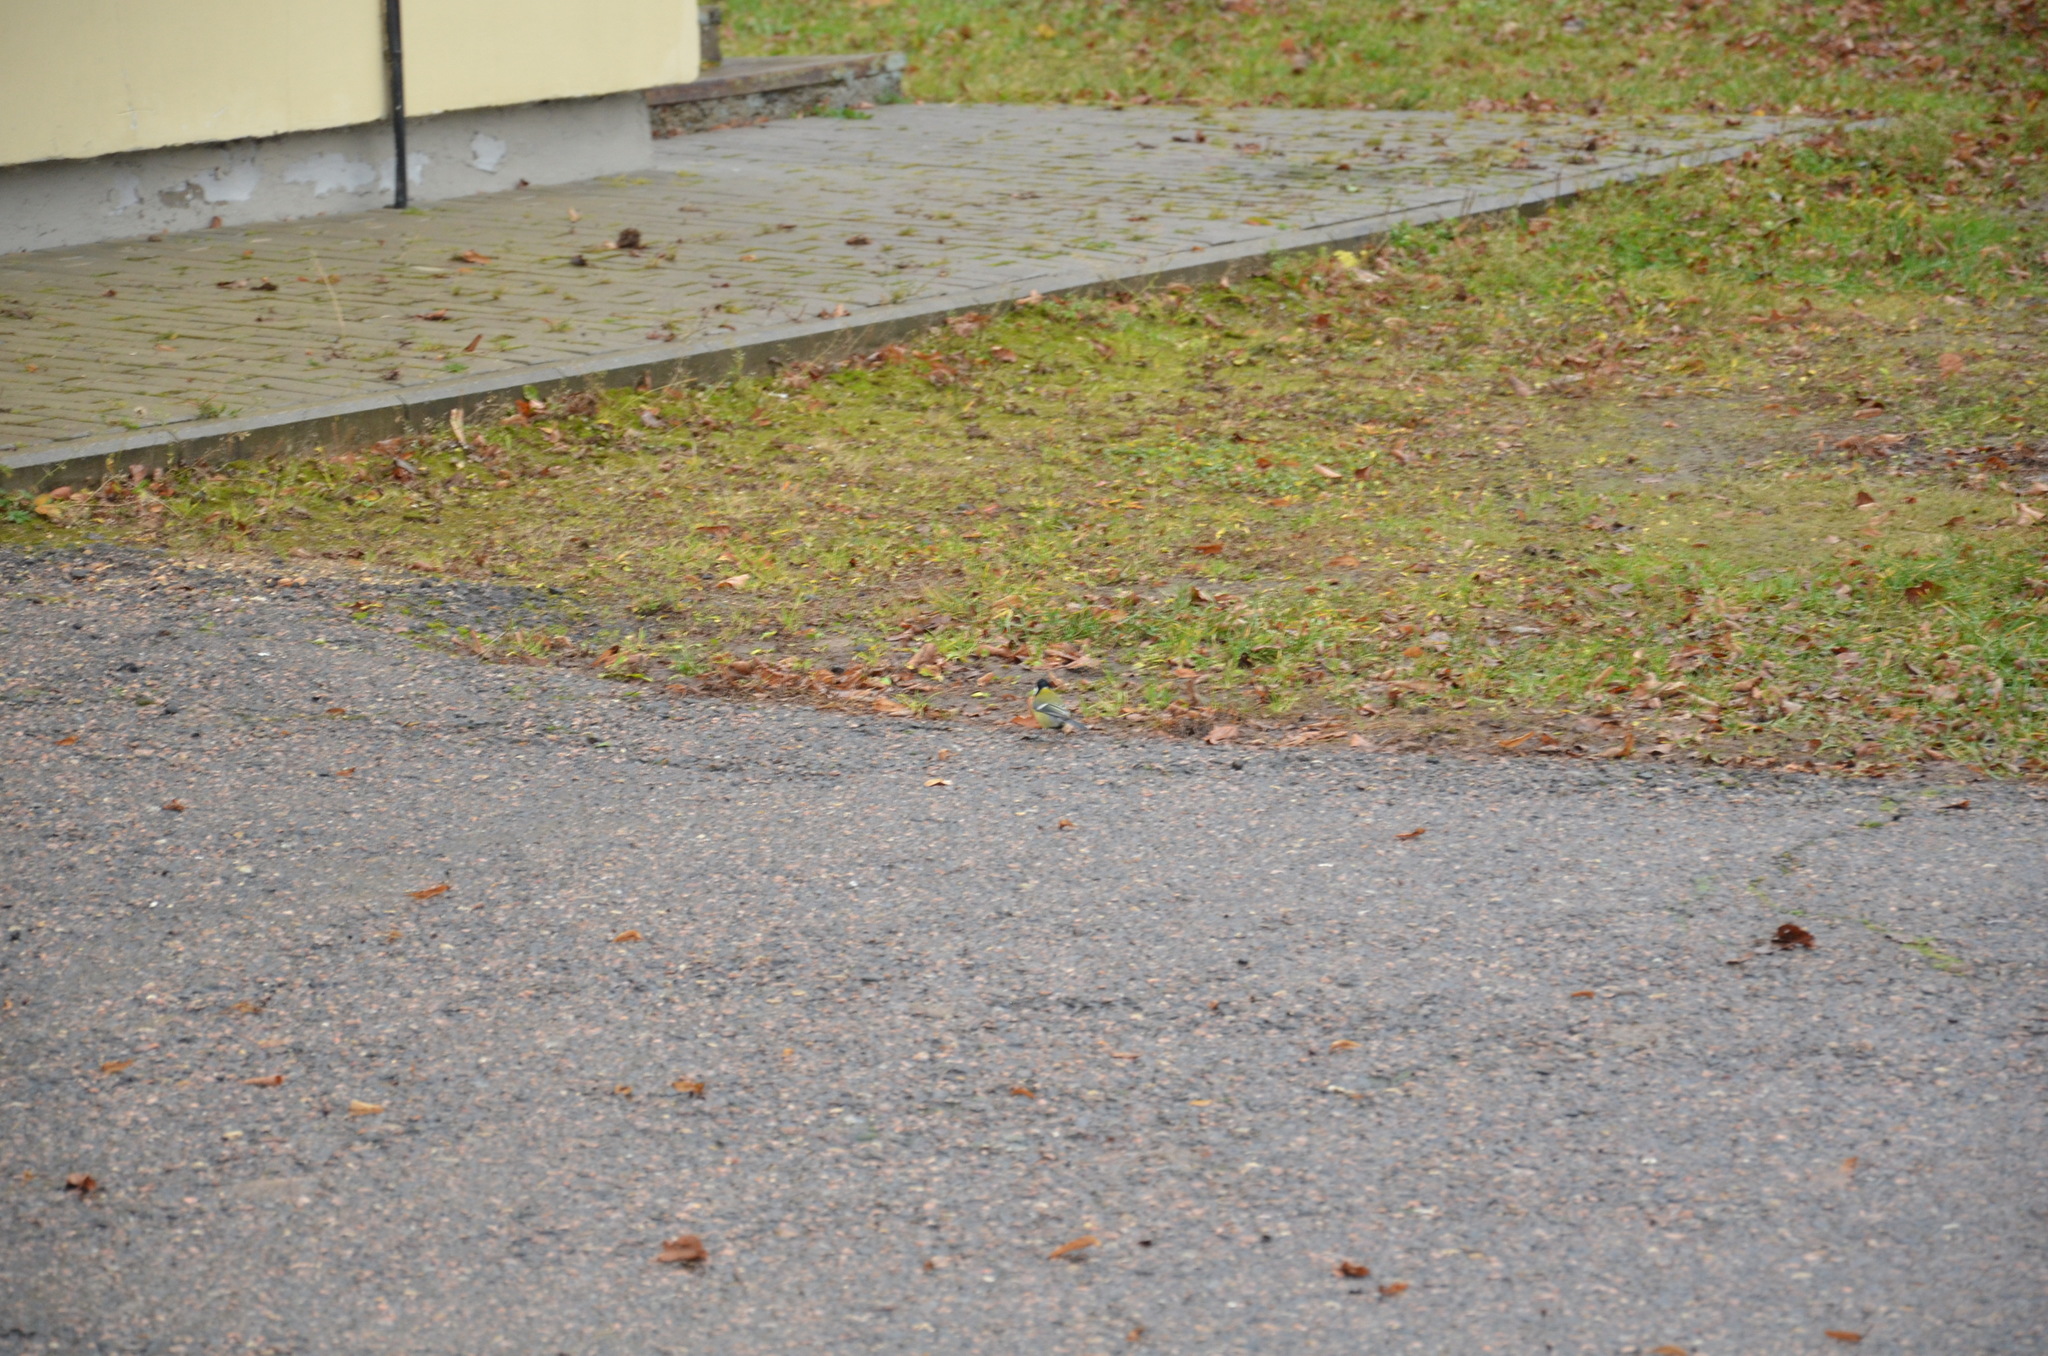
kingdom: Animalia
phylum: Chordata
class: Aves
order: Passeriformes
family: Paridae
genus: Parus
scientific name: Parus major
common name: Great tit
